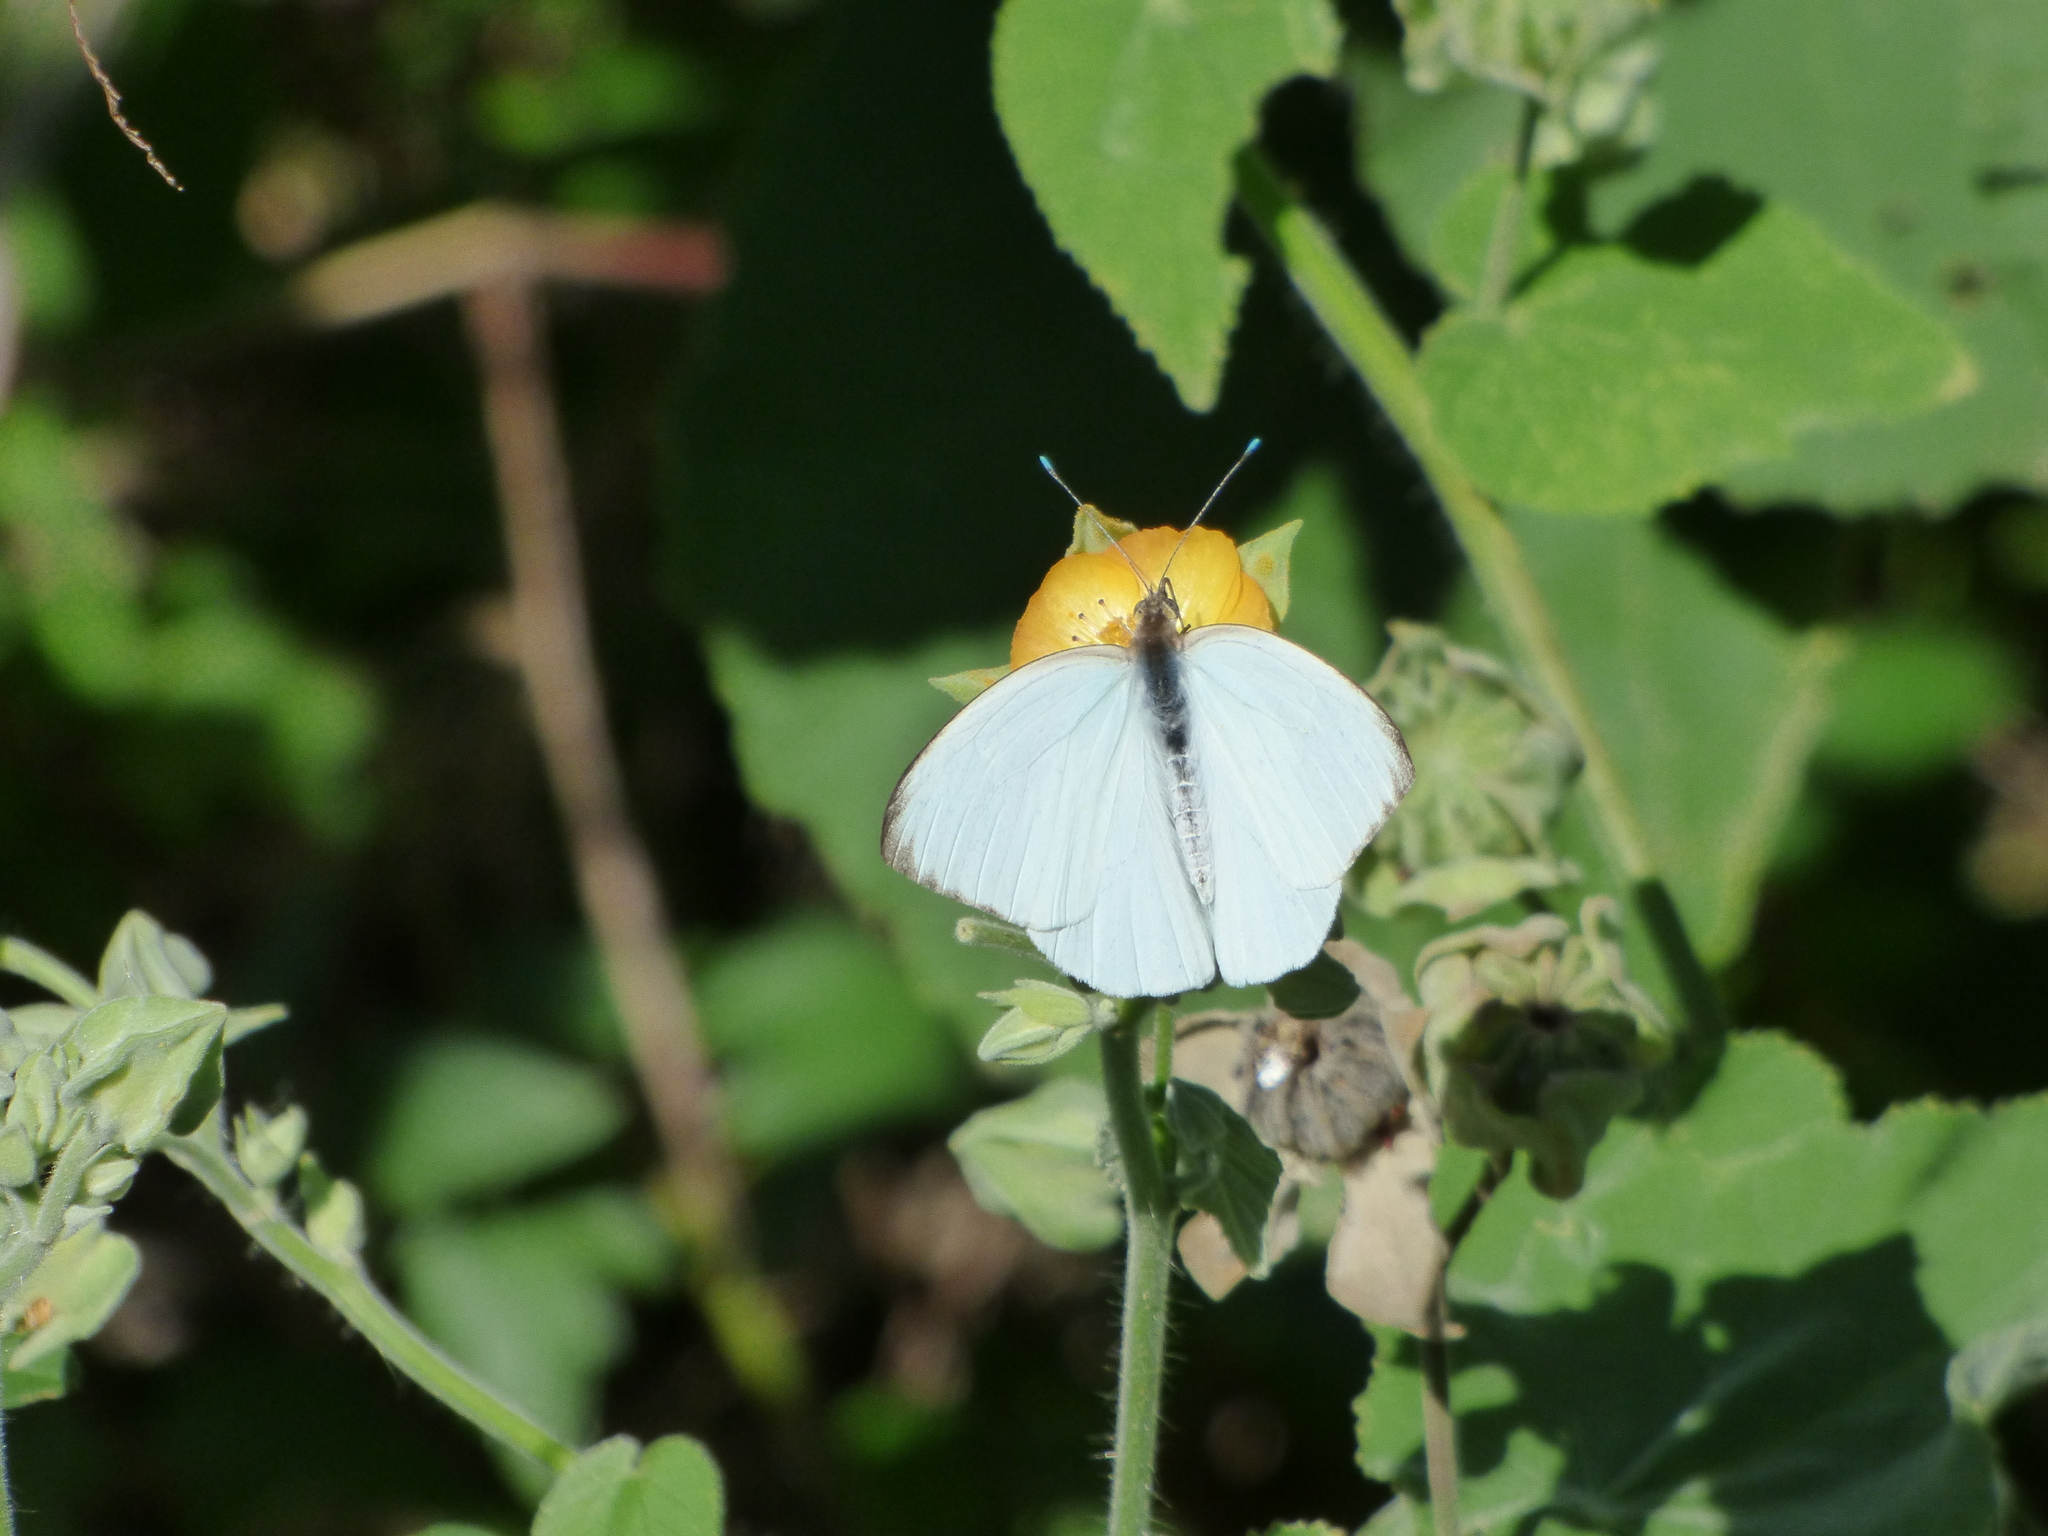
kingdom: Animalia
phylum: Arthropoda
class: Insecta
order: Lepidoptera
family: Pieridae
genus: Ascia
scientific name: Ascia monuste
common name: Great southern white
